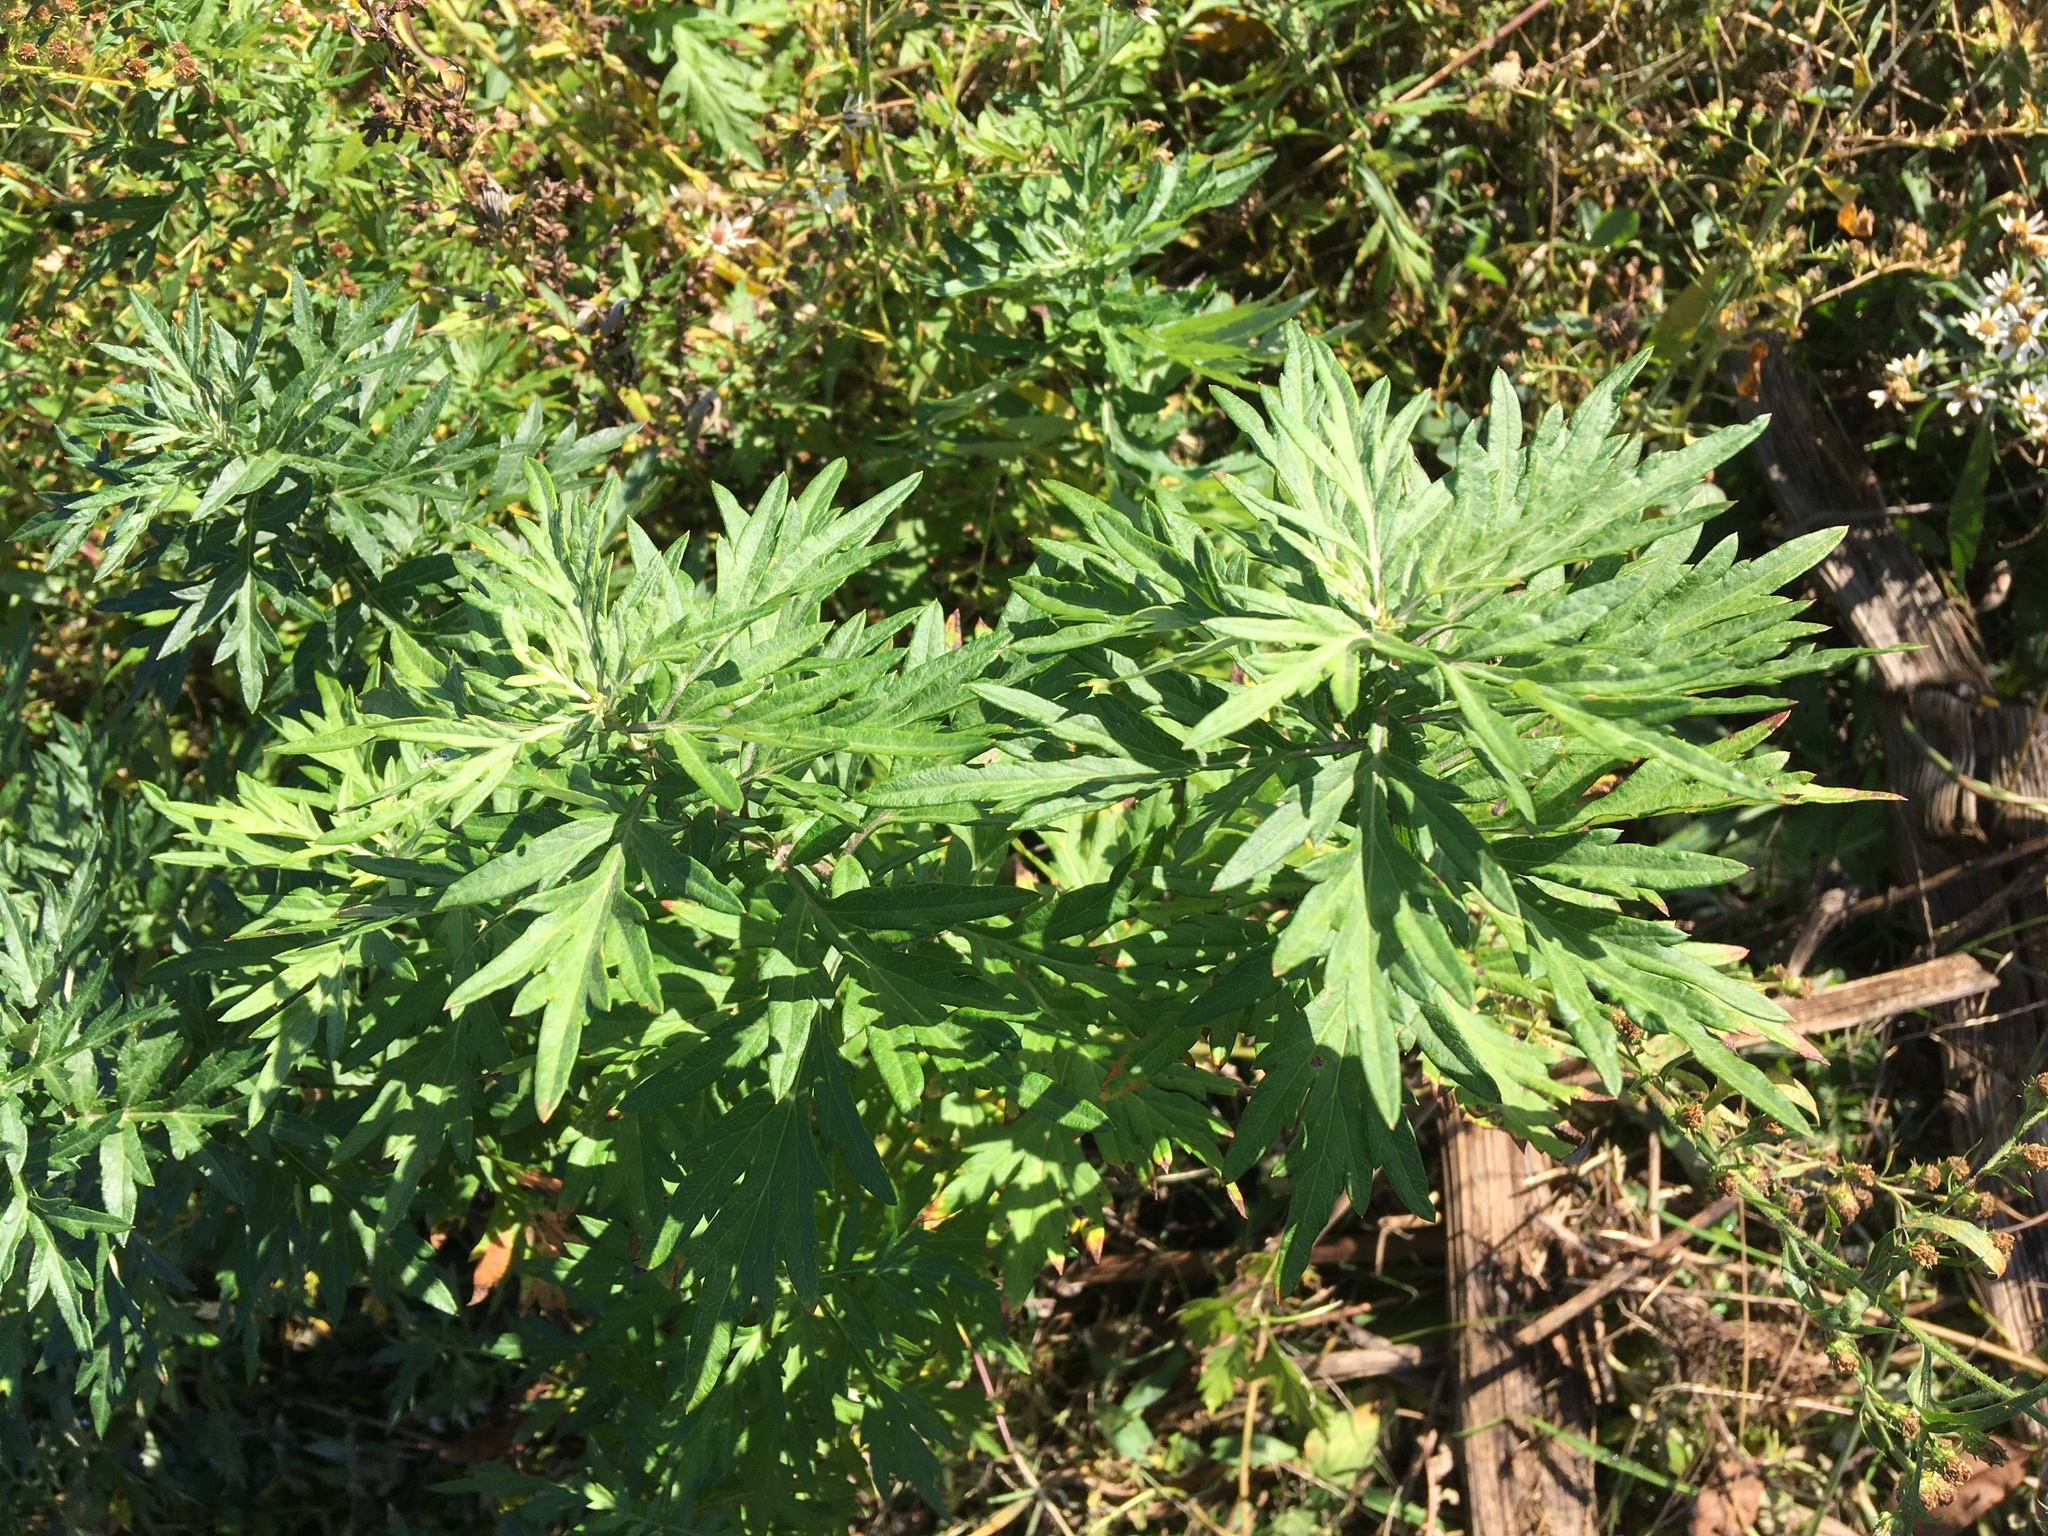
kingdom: Plantae
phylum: Tracheophyta
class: Magnoliopsida
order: Asterales
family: Asteraceae
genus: Artemisia
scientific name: Artemisia vulgaris
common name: Mugwort
